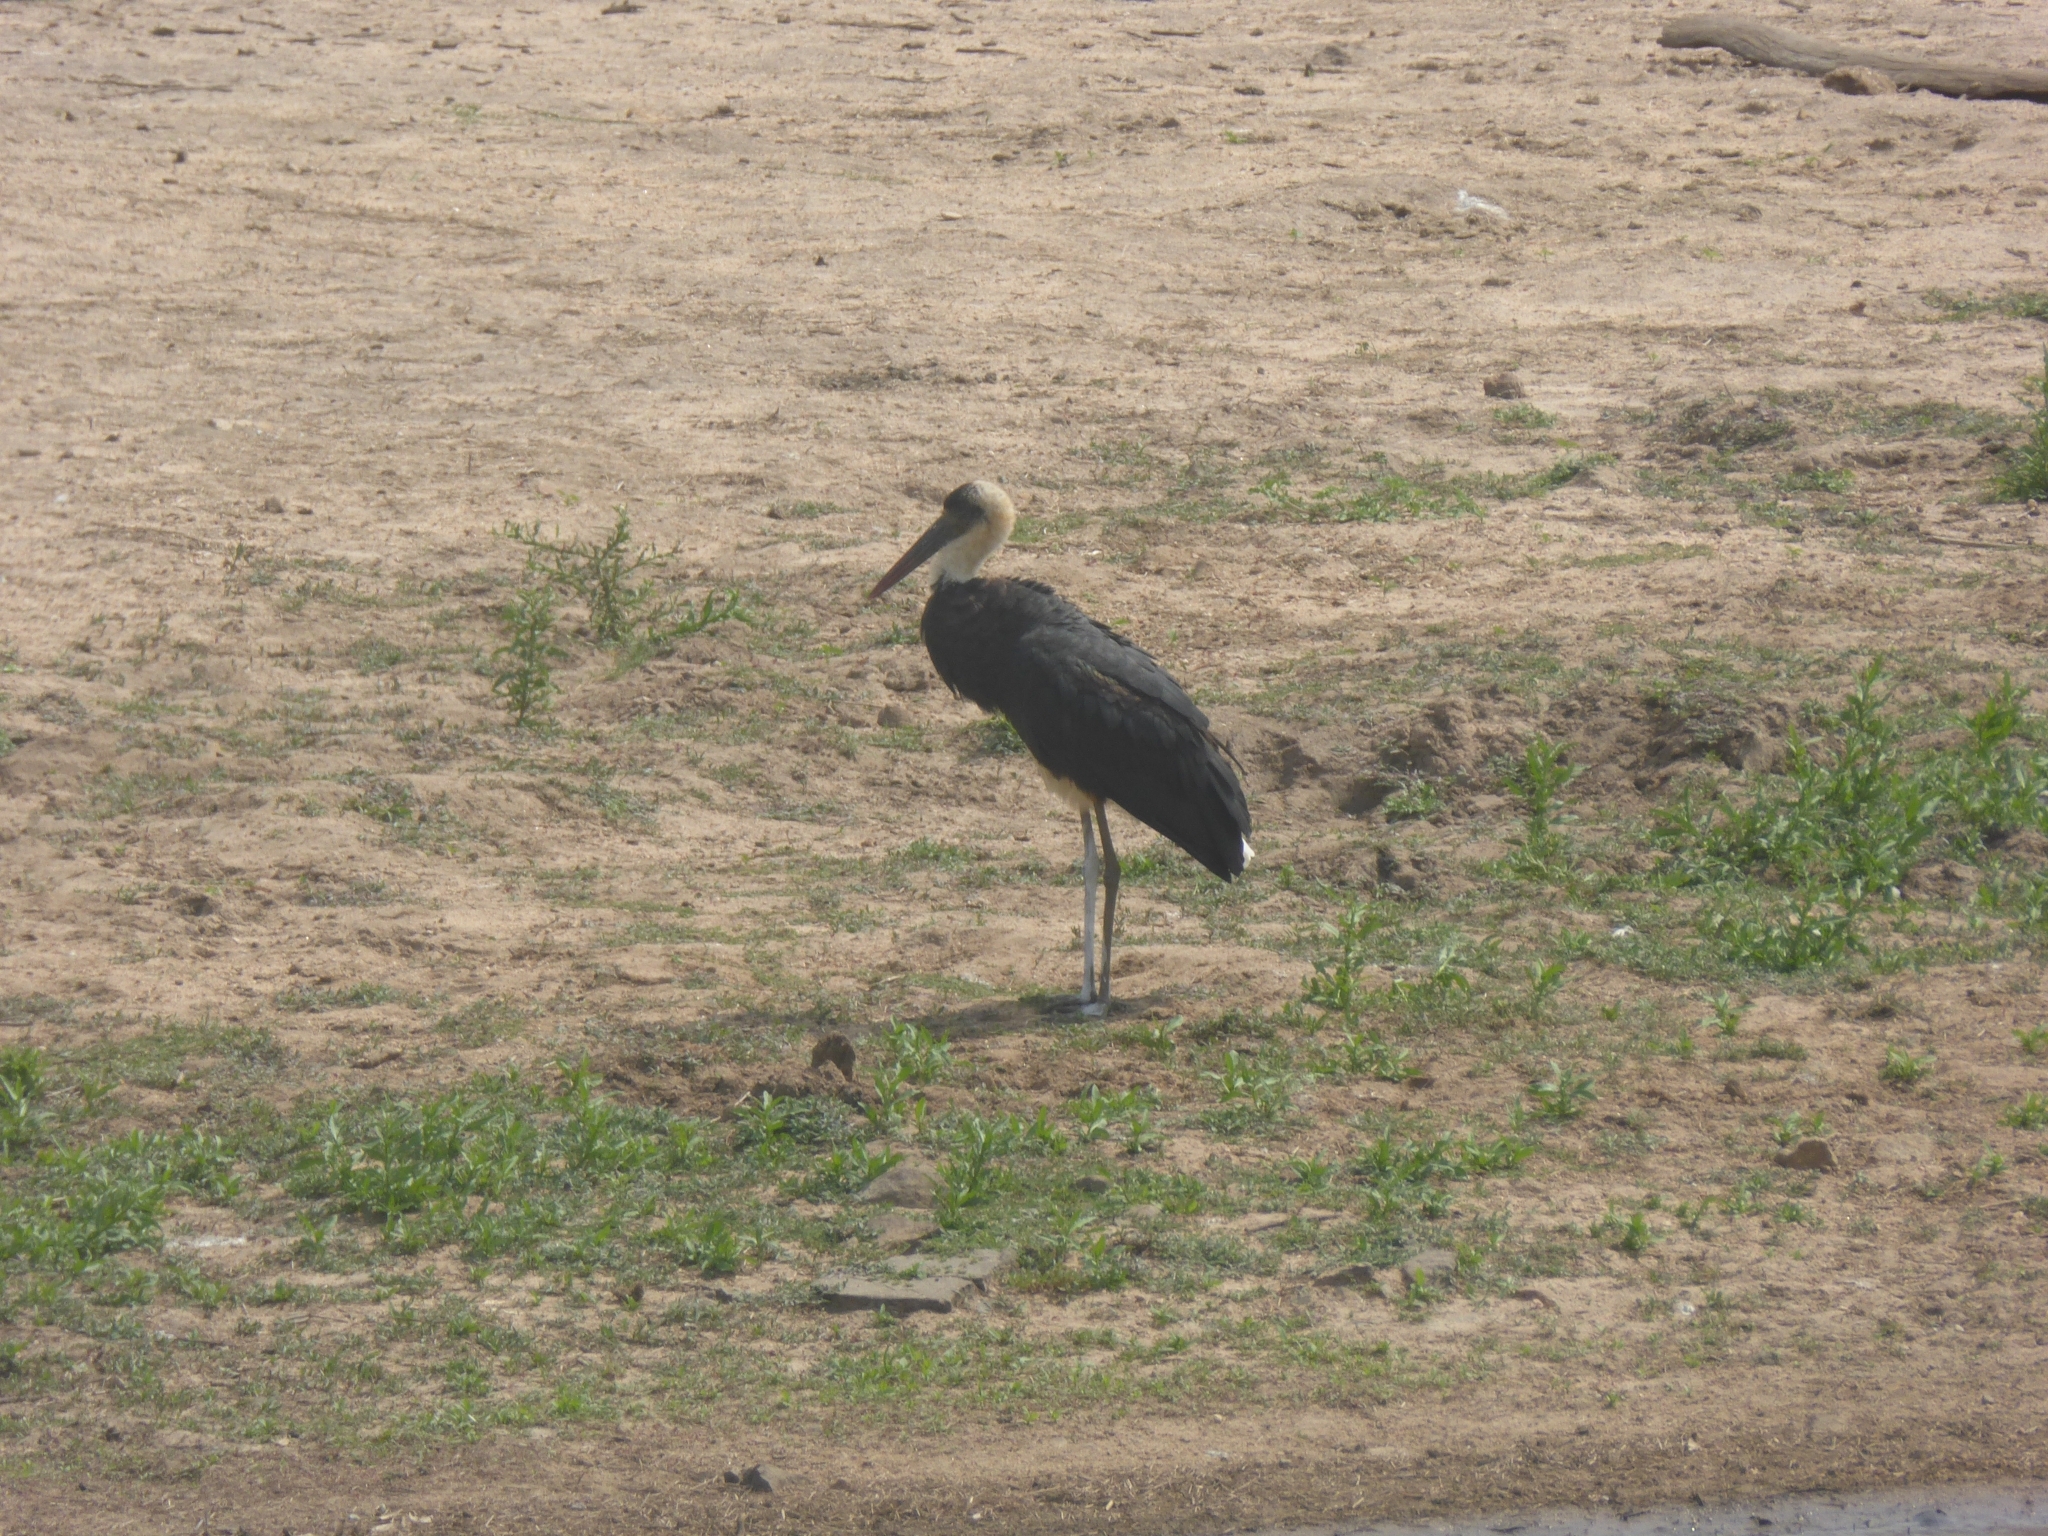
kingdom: Animalia
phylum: Chordata
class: Aves
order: Ciconiiformes
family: Ciconiidae
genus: Ciconia
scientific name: Ciconia microscelis
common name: African woollyneck
